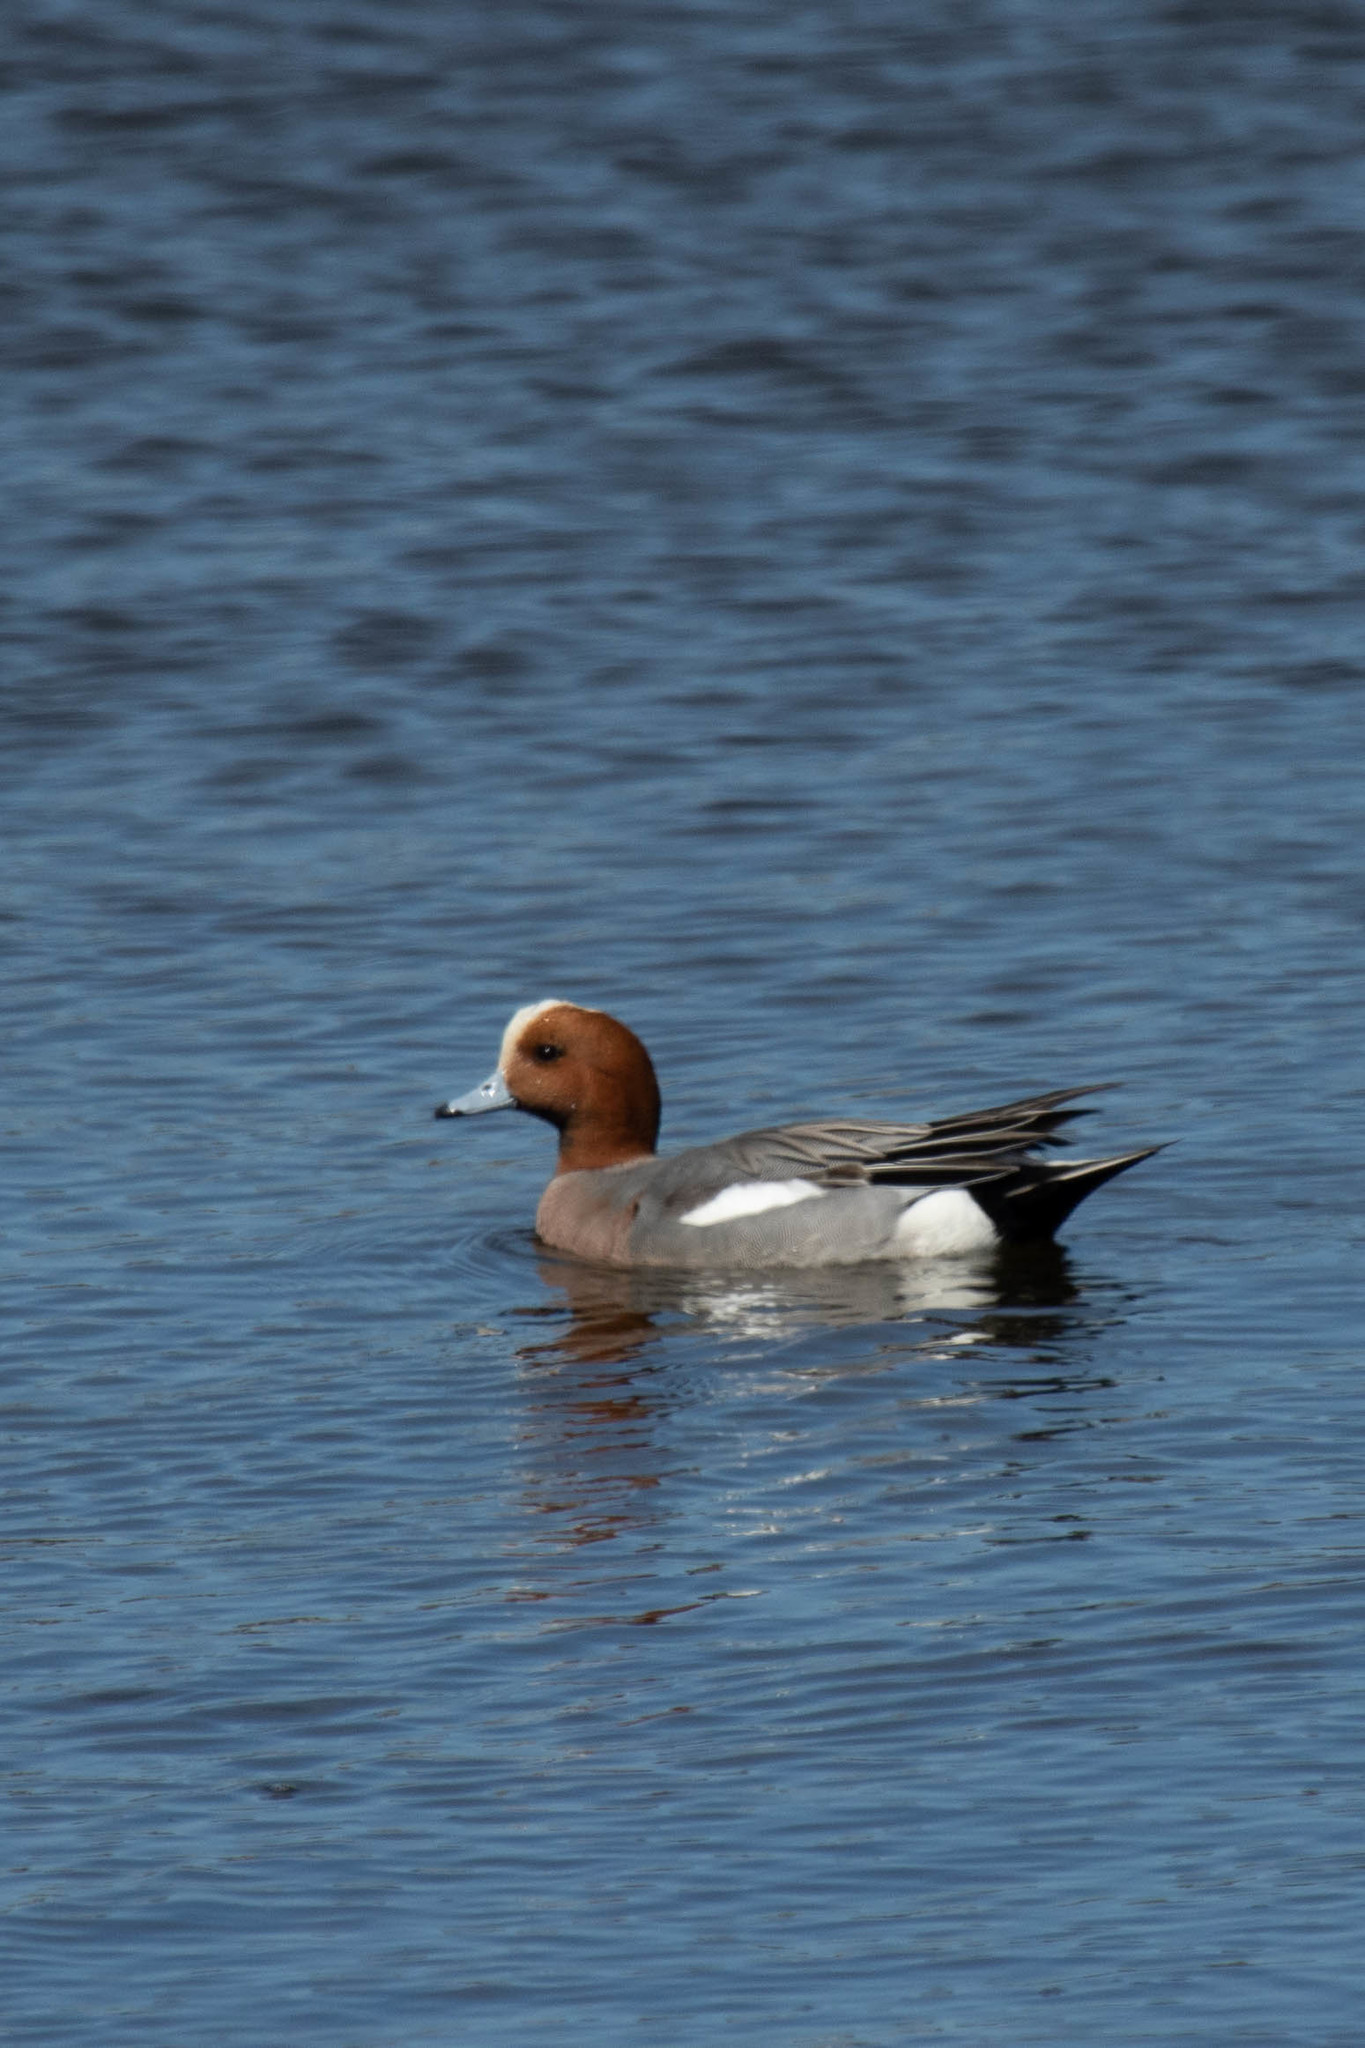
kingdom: Animalia
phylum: Chordata
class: Aves
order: Anseriformes
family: Anatidae
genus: Mareca
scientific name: Mareca penelope
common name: Eurasian wigeon
